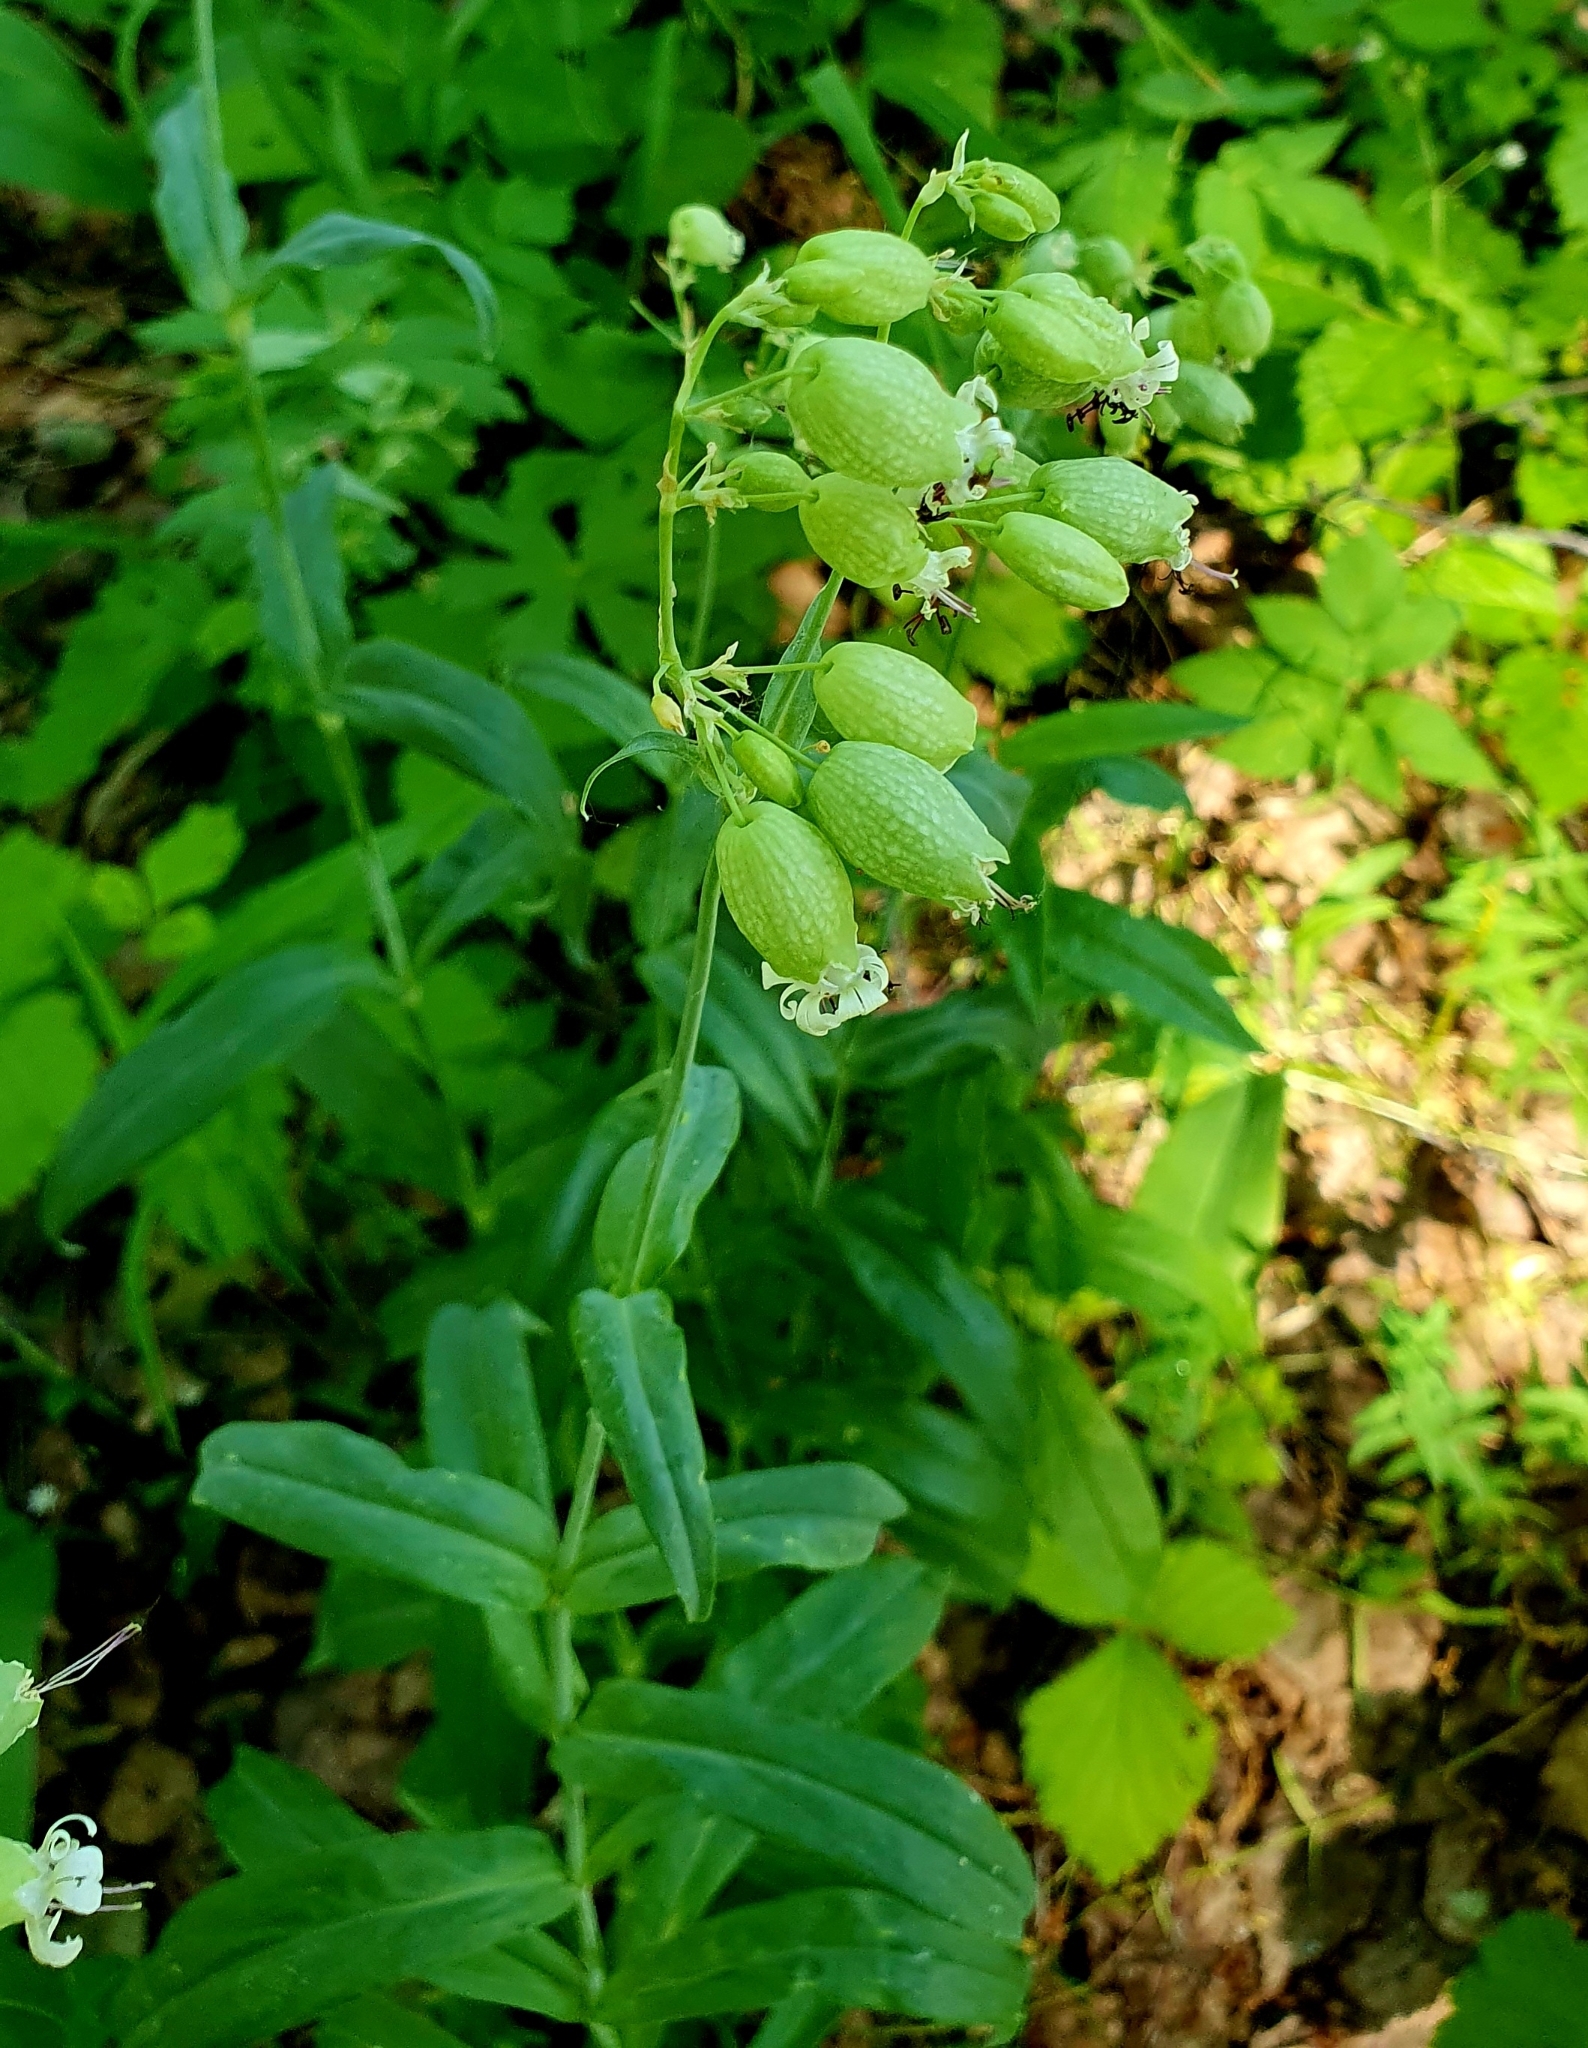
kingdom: Plantae
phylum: Tracheophyta
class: Magnoliopsida
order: Caryophyllales
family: Caryophyllaceae
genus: Silene
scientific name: Silene vulgaris
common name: Bladder campion
